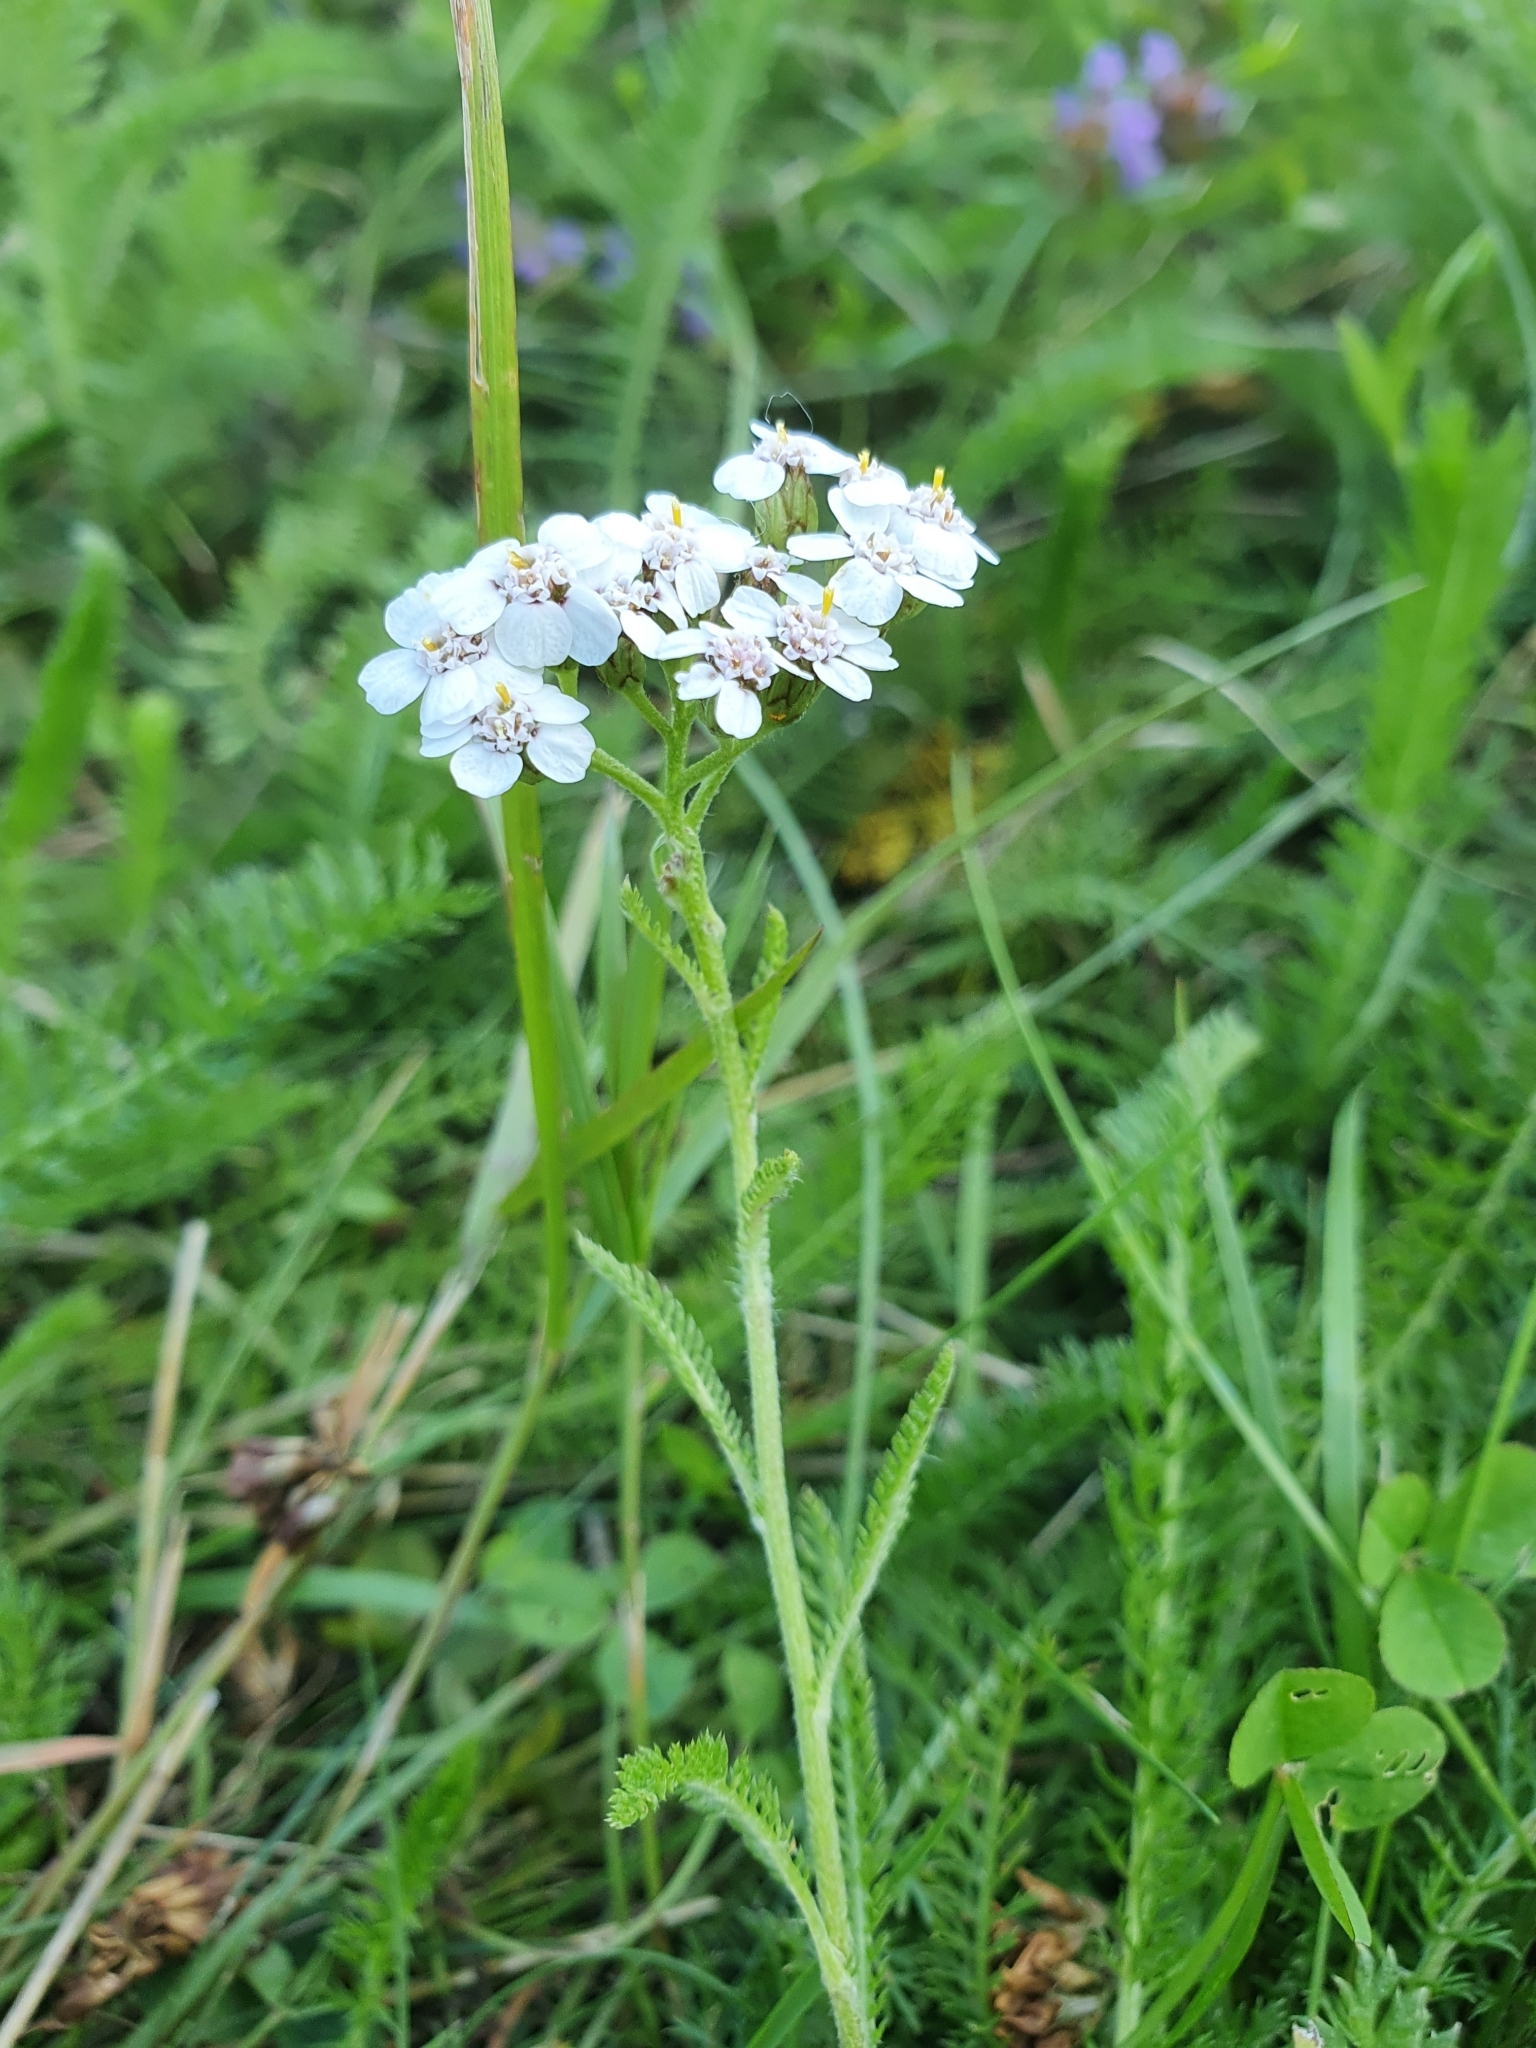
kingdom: Plantae
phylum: Tracheophyta
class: Magnoliopsida
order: Asterales
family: Asteraceae
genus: Achillea
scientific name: Achillea millefolium
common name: Yarrow
